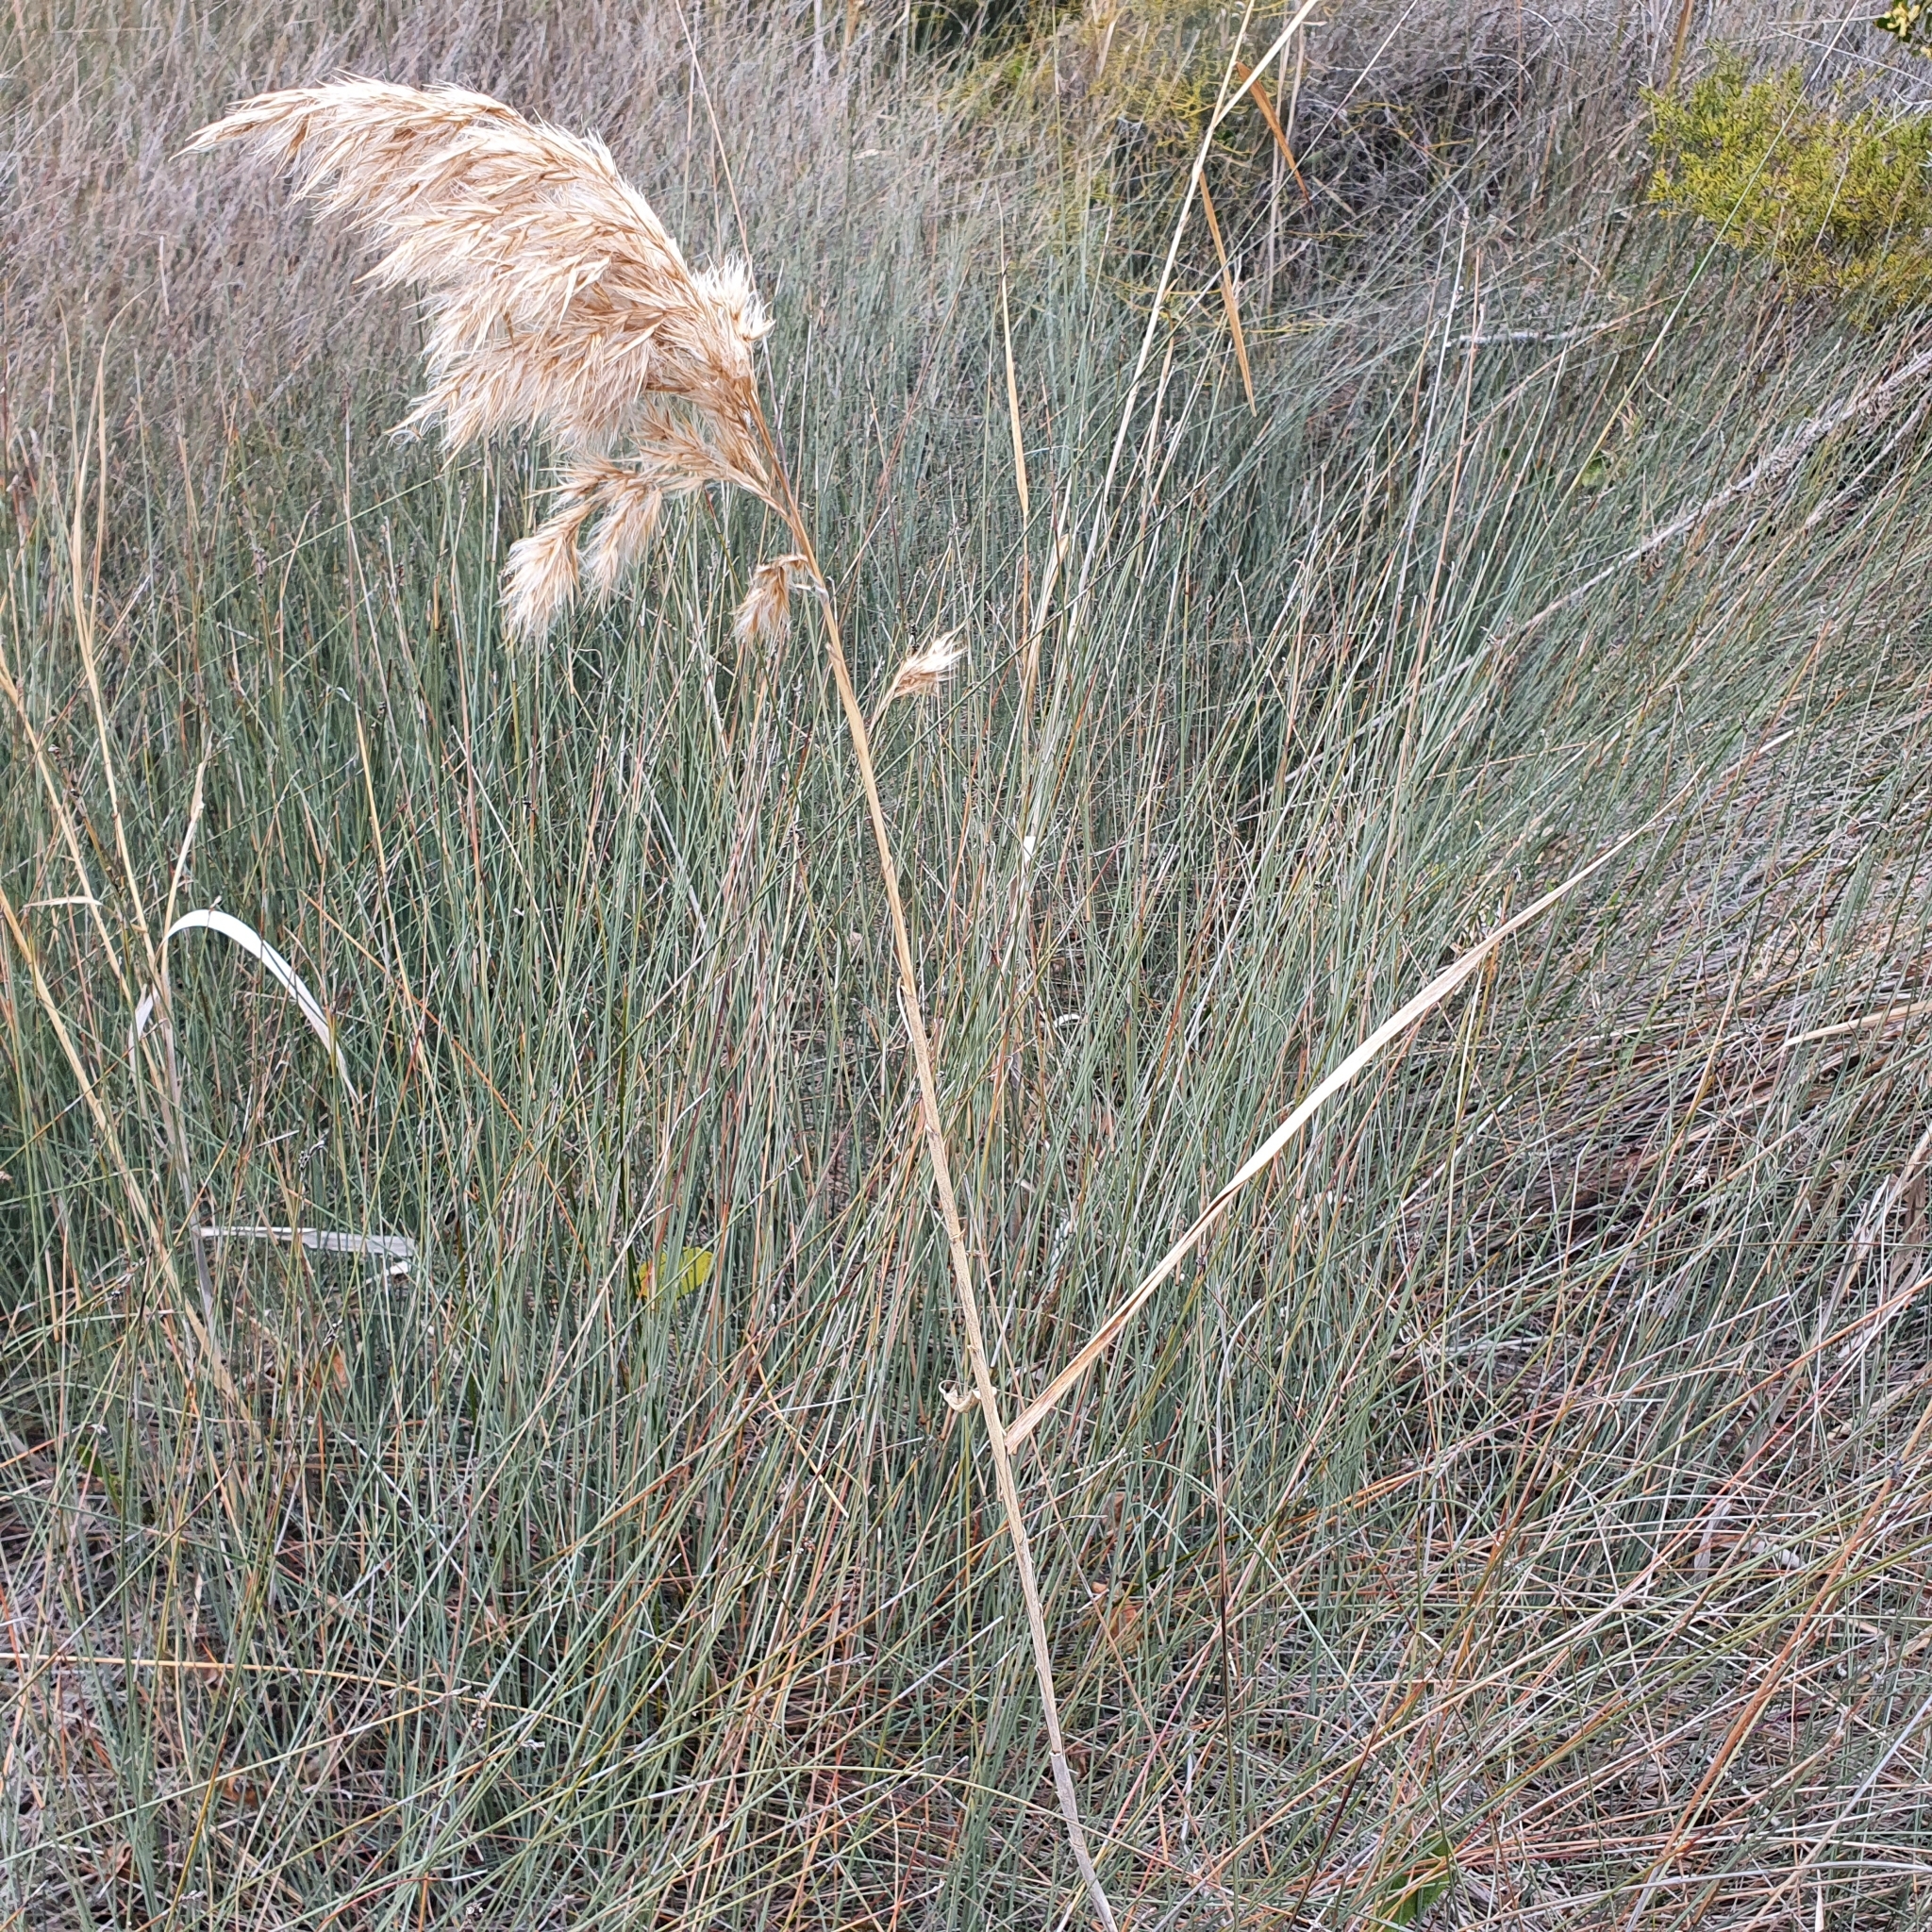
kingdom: Plantae
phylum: Tracheophyta
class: Liliopsida
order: Poales
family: Poaceae
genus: Phragmites
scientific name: Phragmites australis
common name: Common reed
